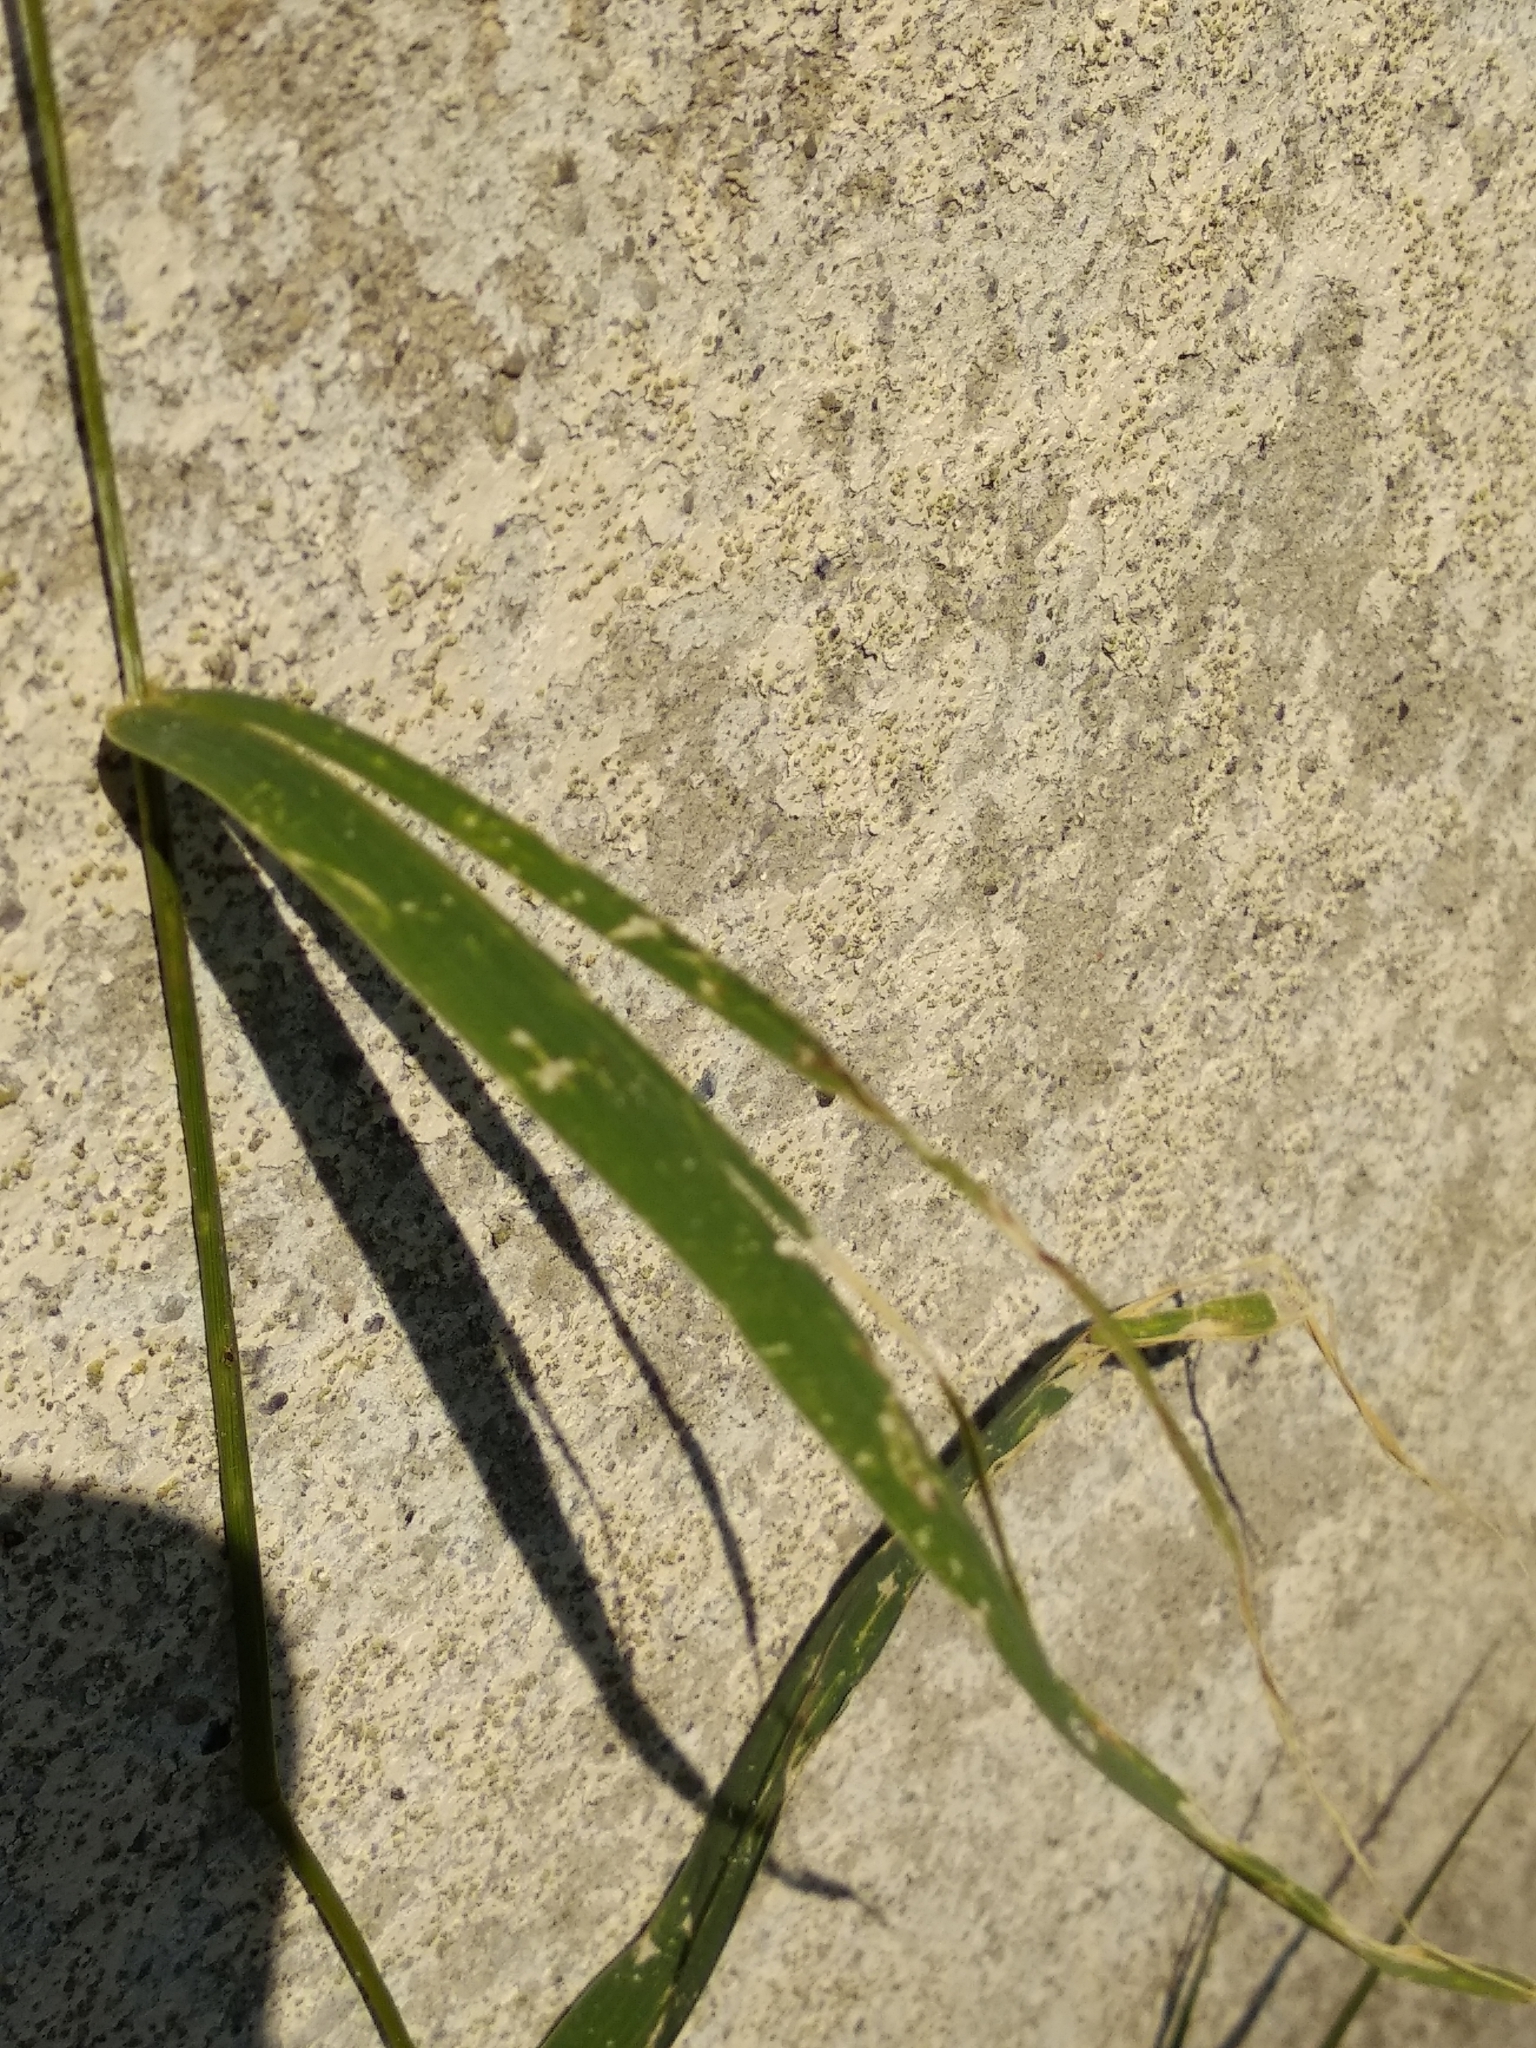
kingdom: Plantae
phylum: Tracheophyta
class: Liliopsida
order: Poales
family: Poaceae
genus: Setaria
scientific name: Setaria viridis
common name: Green bristlegrass
